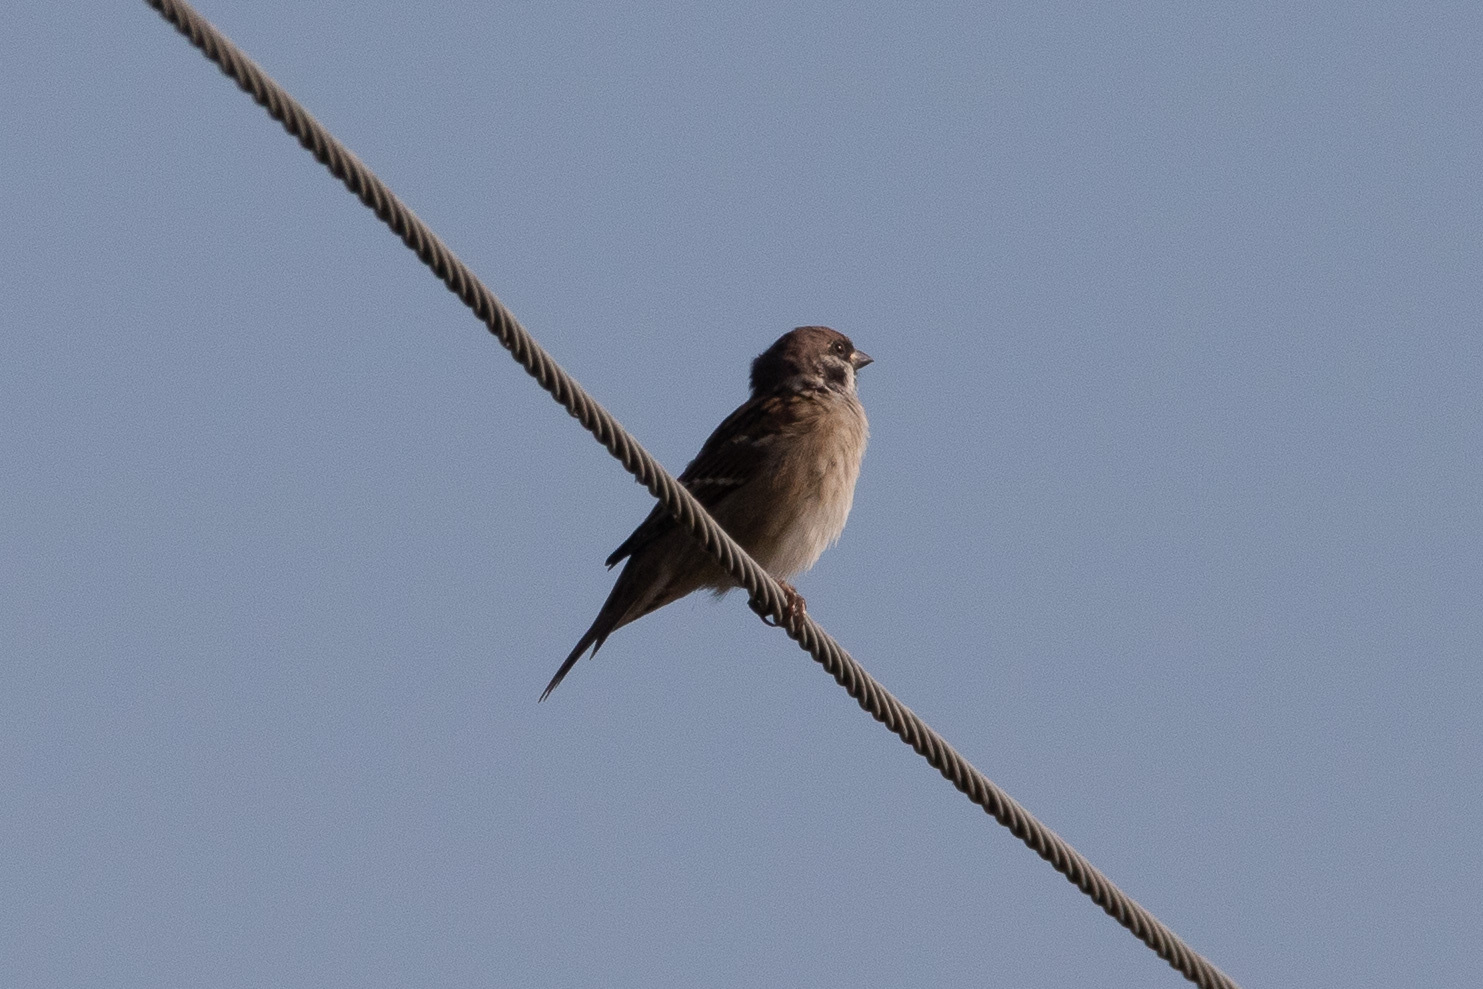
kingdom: Animalia
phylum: Chordata
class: Aves
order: Passeriformes
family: Passeridae
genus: Passer
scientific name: Passer montanus
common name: Eurasian tree sparrow
